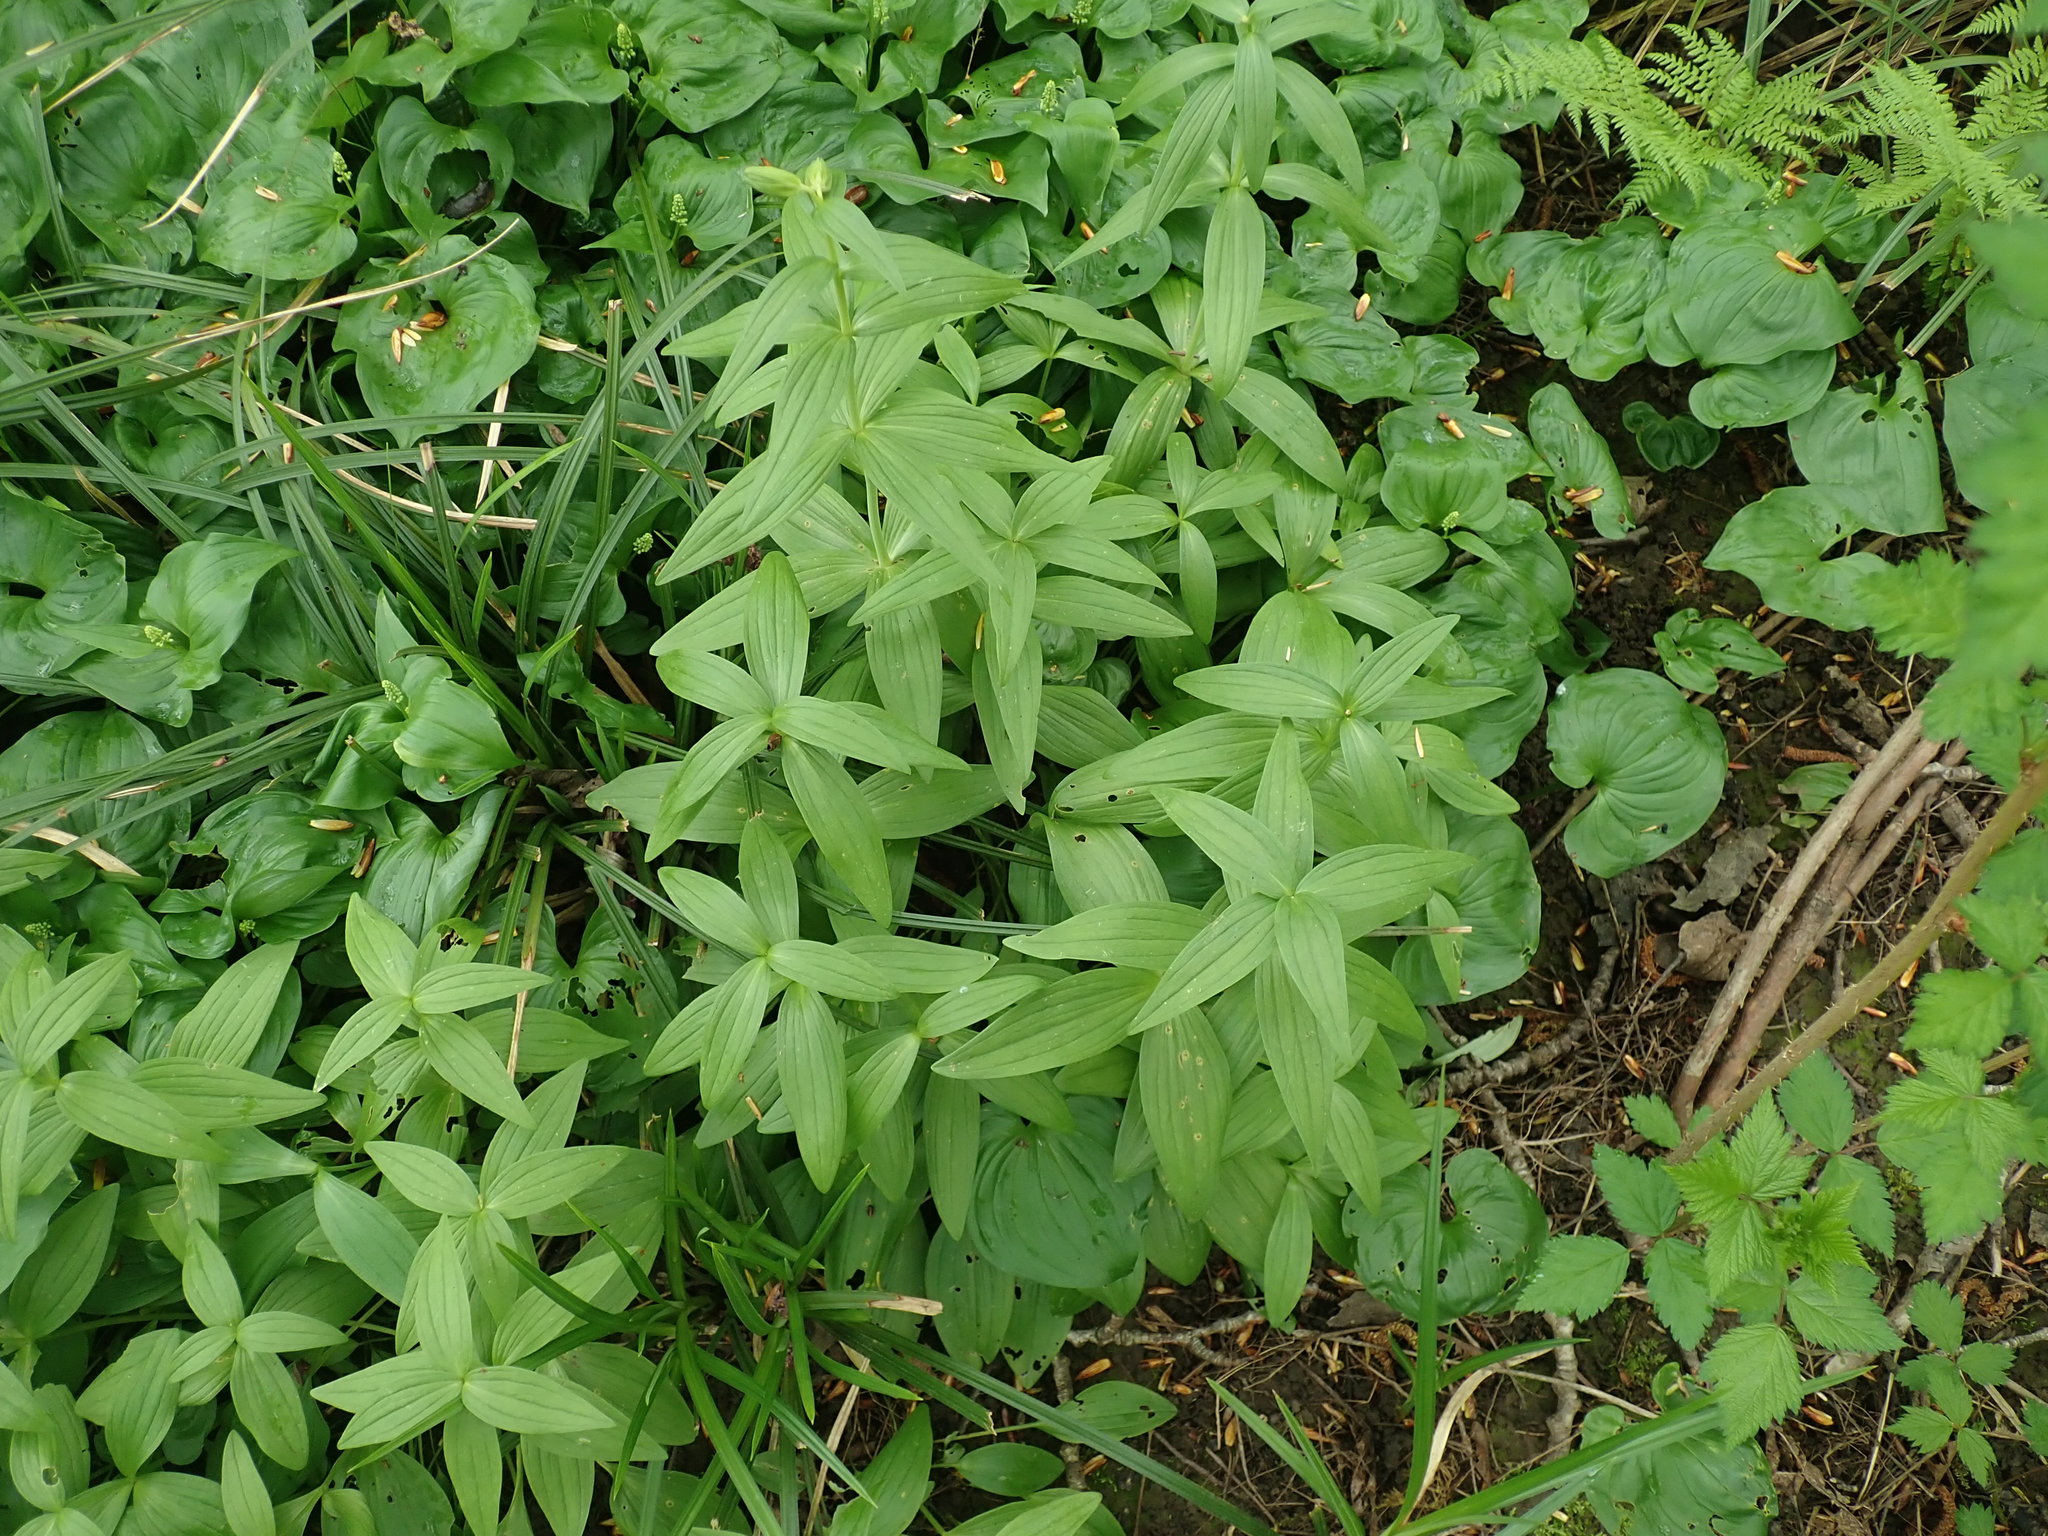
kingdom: Plantae
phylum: Tracheophyta
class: Liliopsida
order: Liliales
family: Liliaceae
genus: Fritillaria
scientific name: Fritillaria camschatcensis
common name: Kamchatka fritillary
